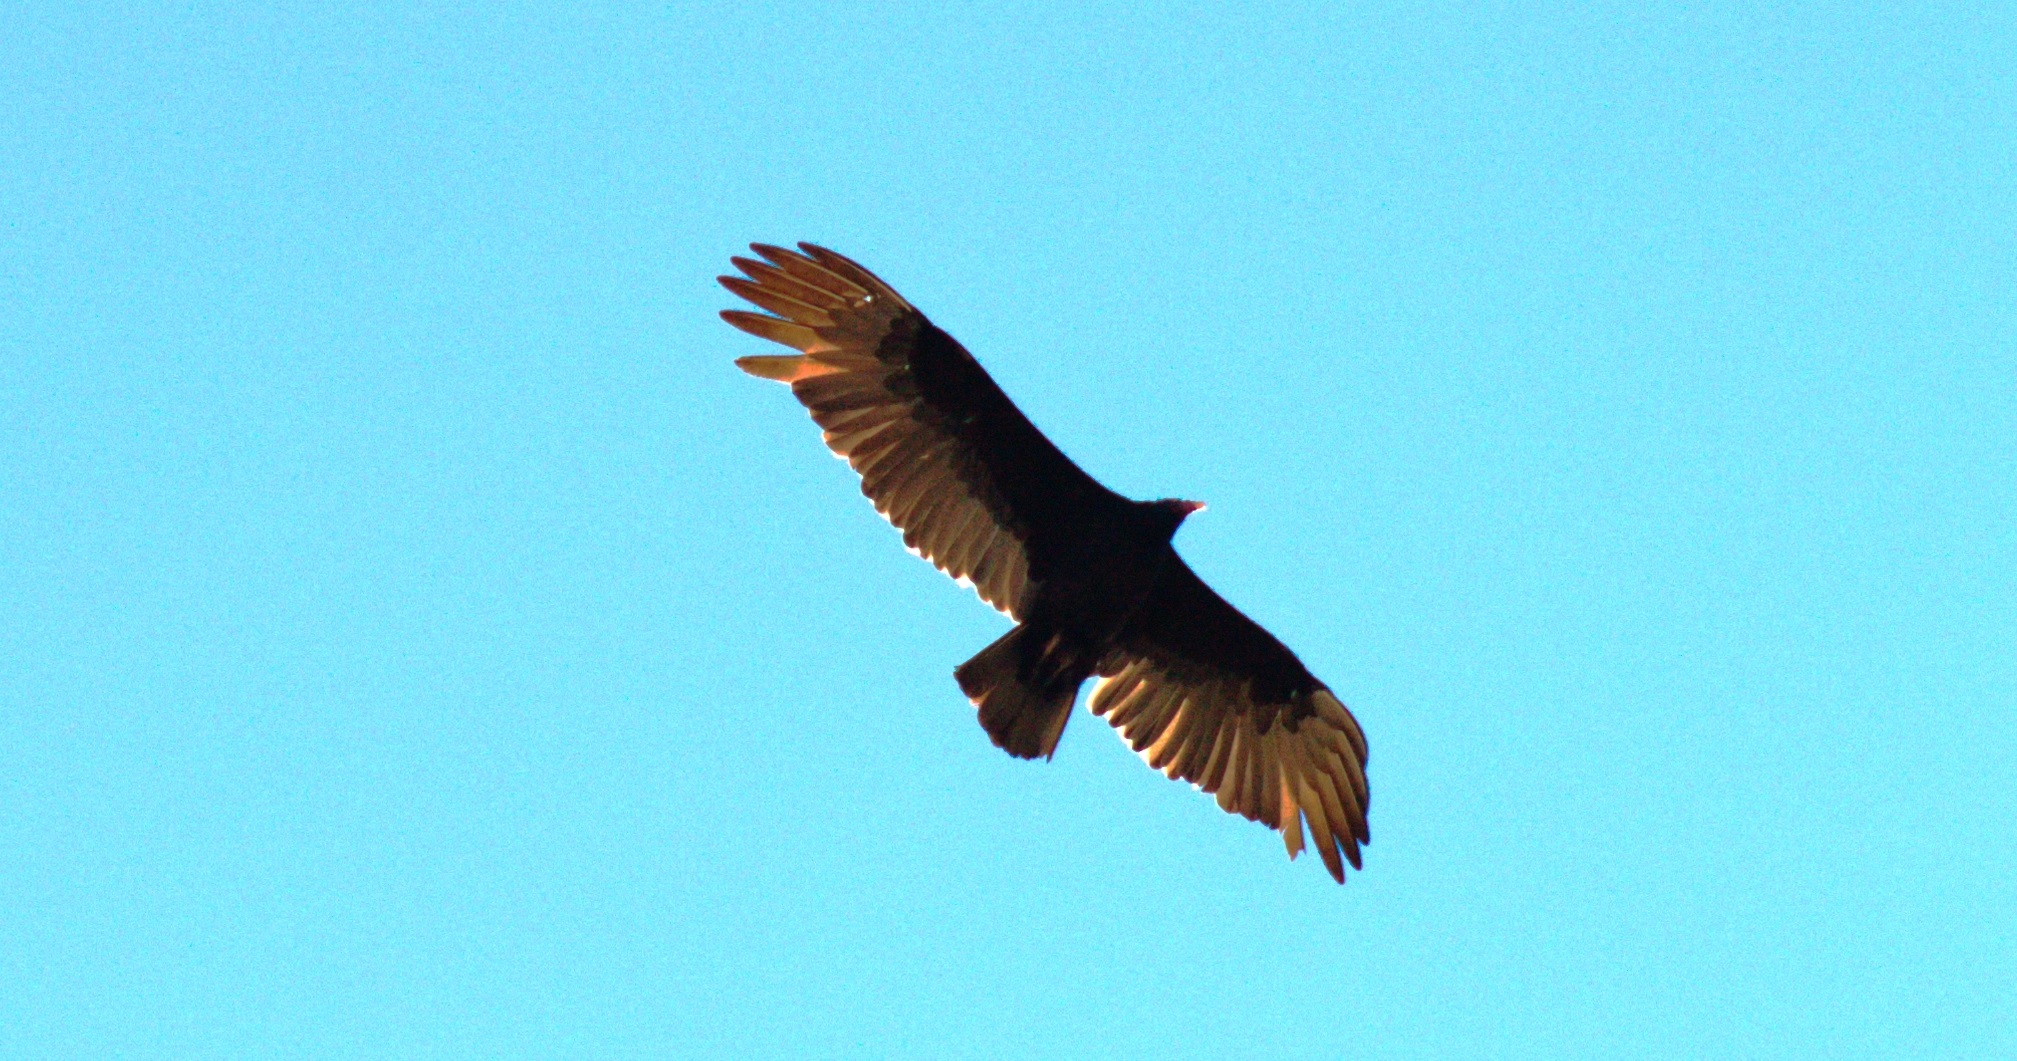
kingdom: Animalia
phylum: Chordata
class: Aves
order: Accipitriformes
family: Cathartidae
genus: Cathartes
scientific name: Cathartes aura
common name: Turkey vulture
